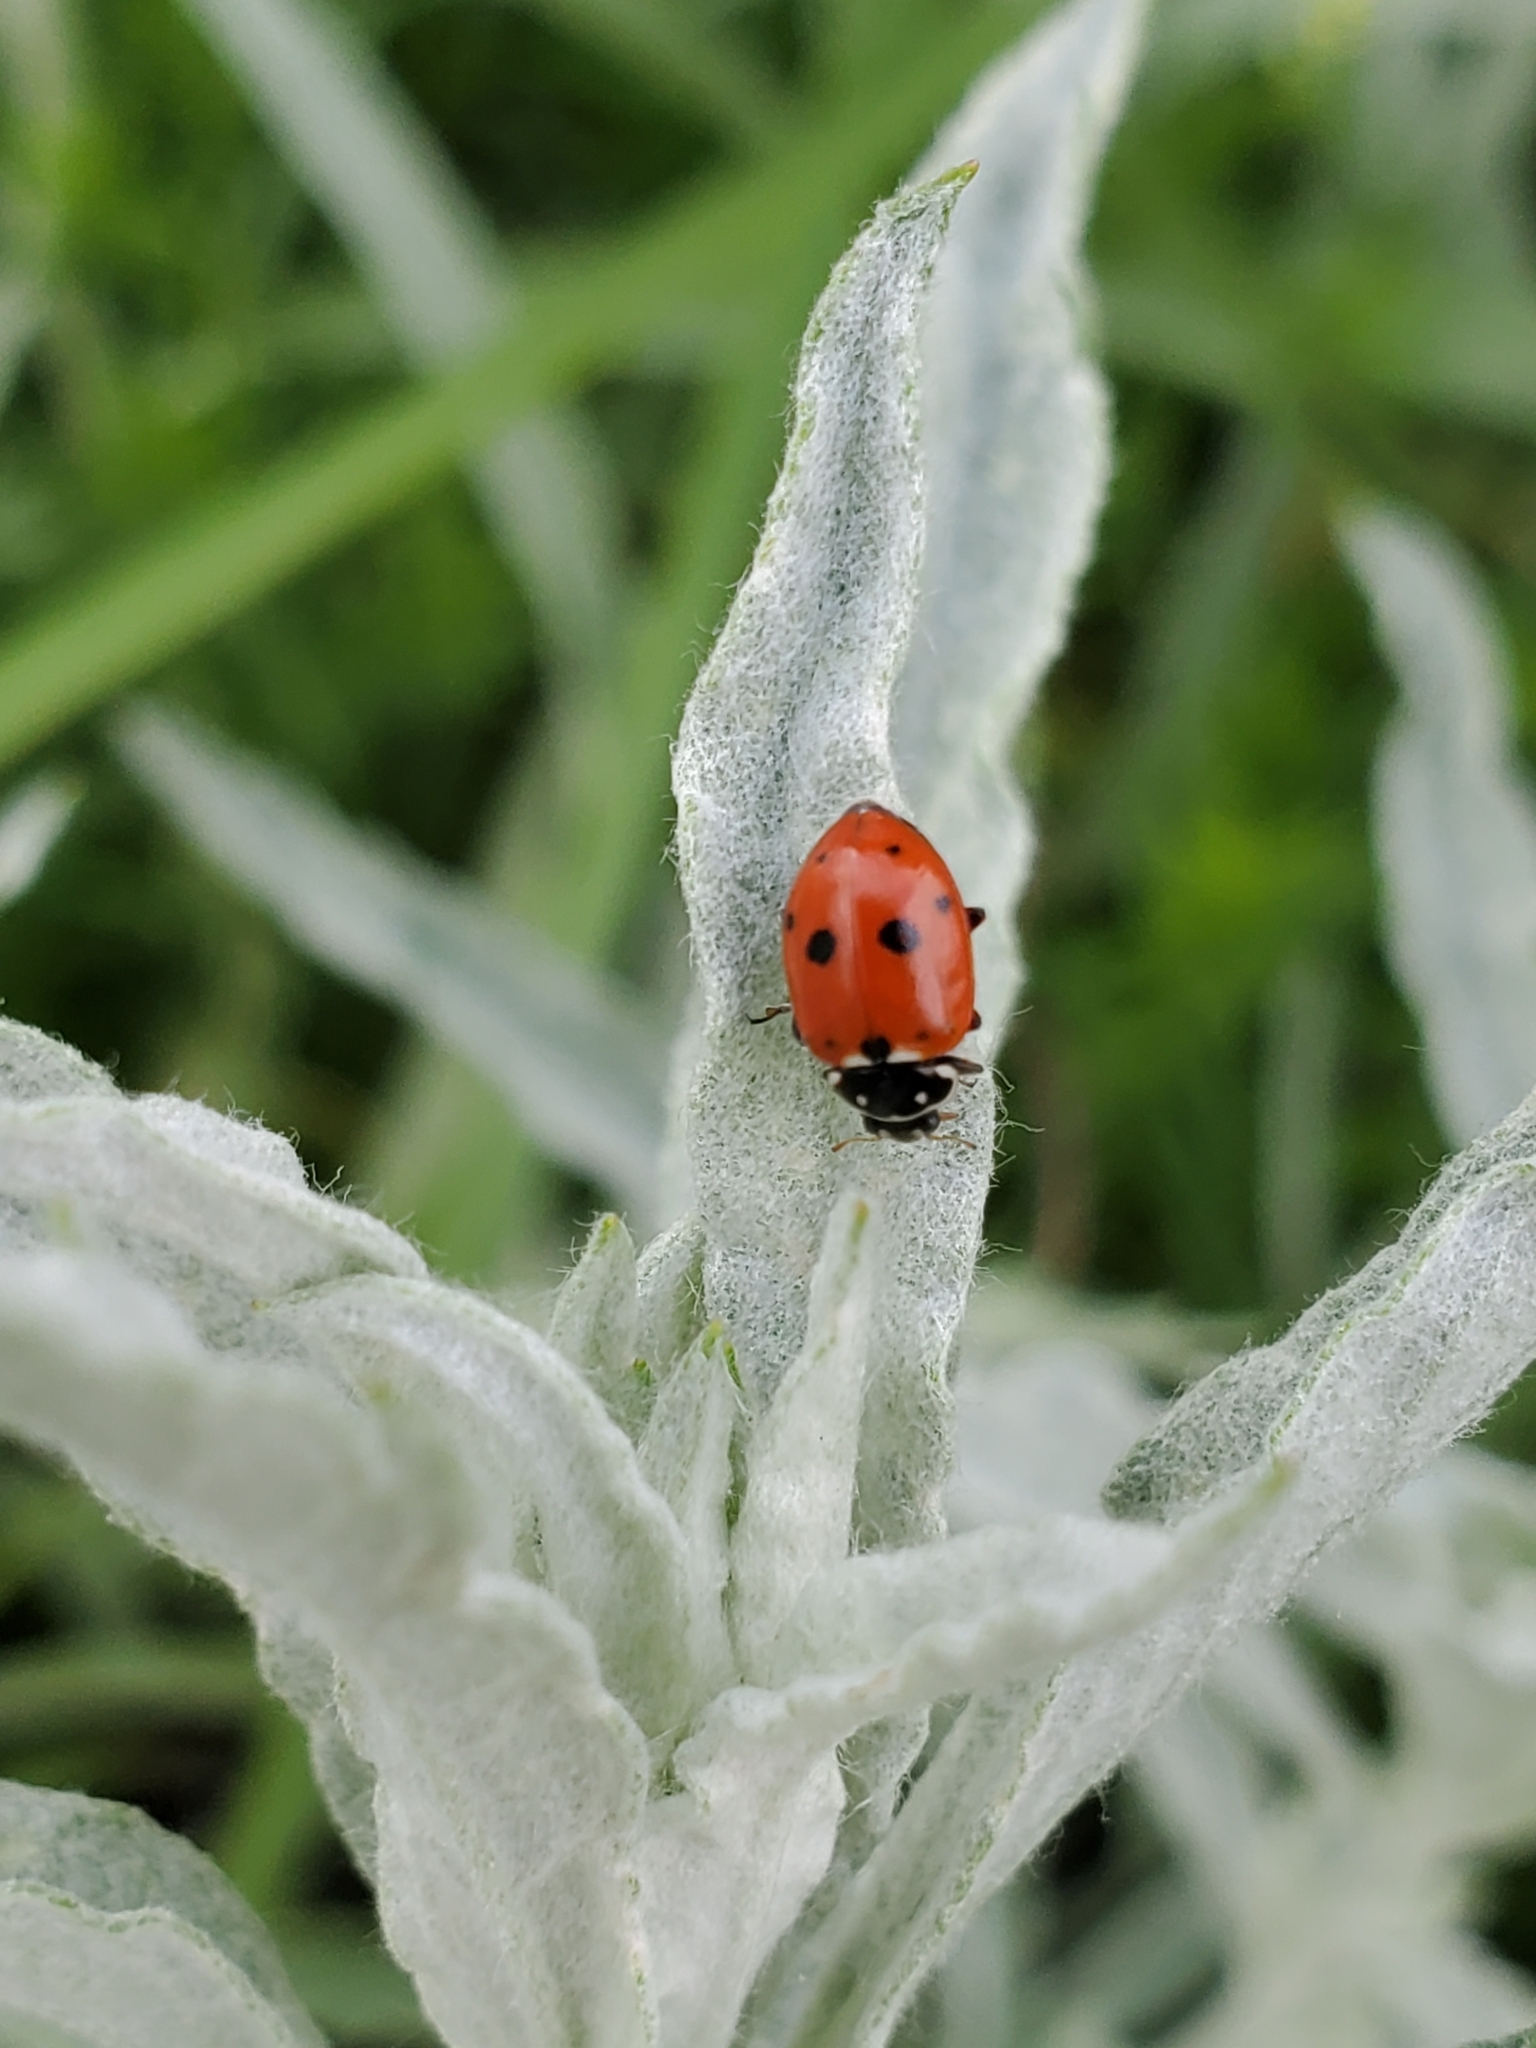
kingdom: Animalia
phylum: Arthropoda
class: Insecta
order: Coleoptera
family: Coccinellidae
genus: Hippodamia
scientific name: Hippodamia variegata
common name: Ladybird beetle
